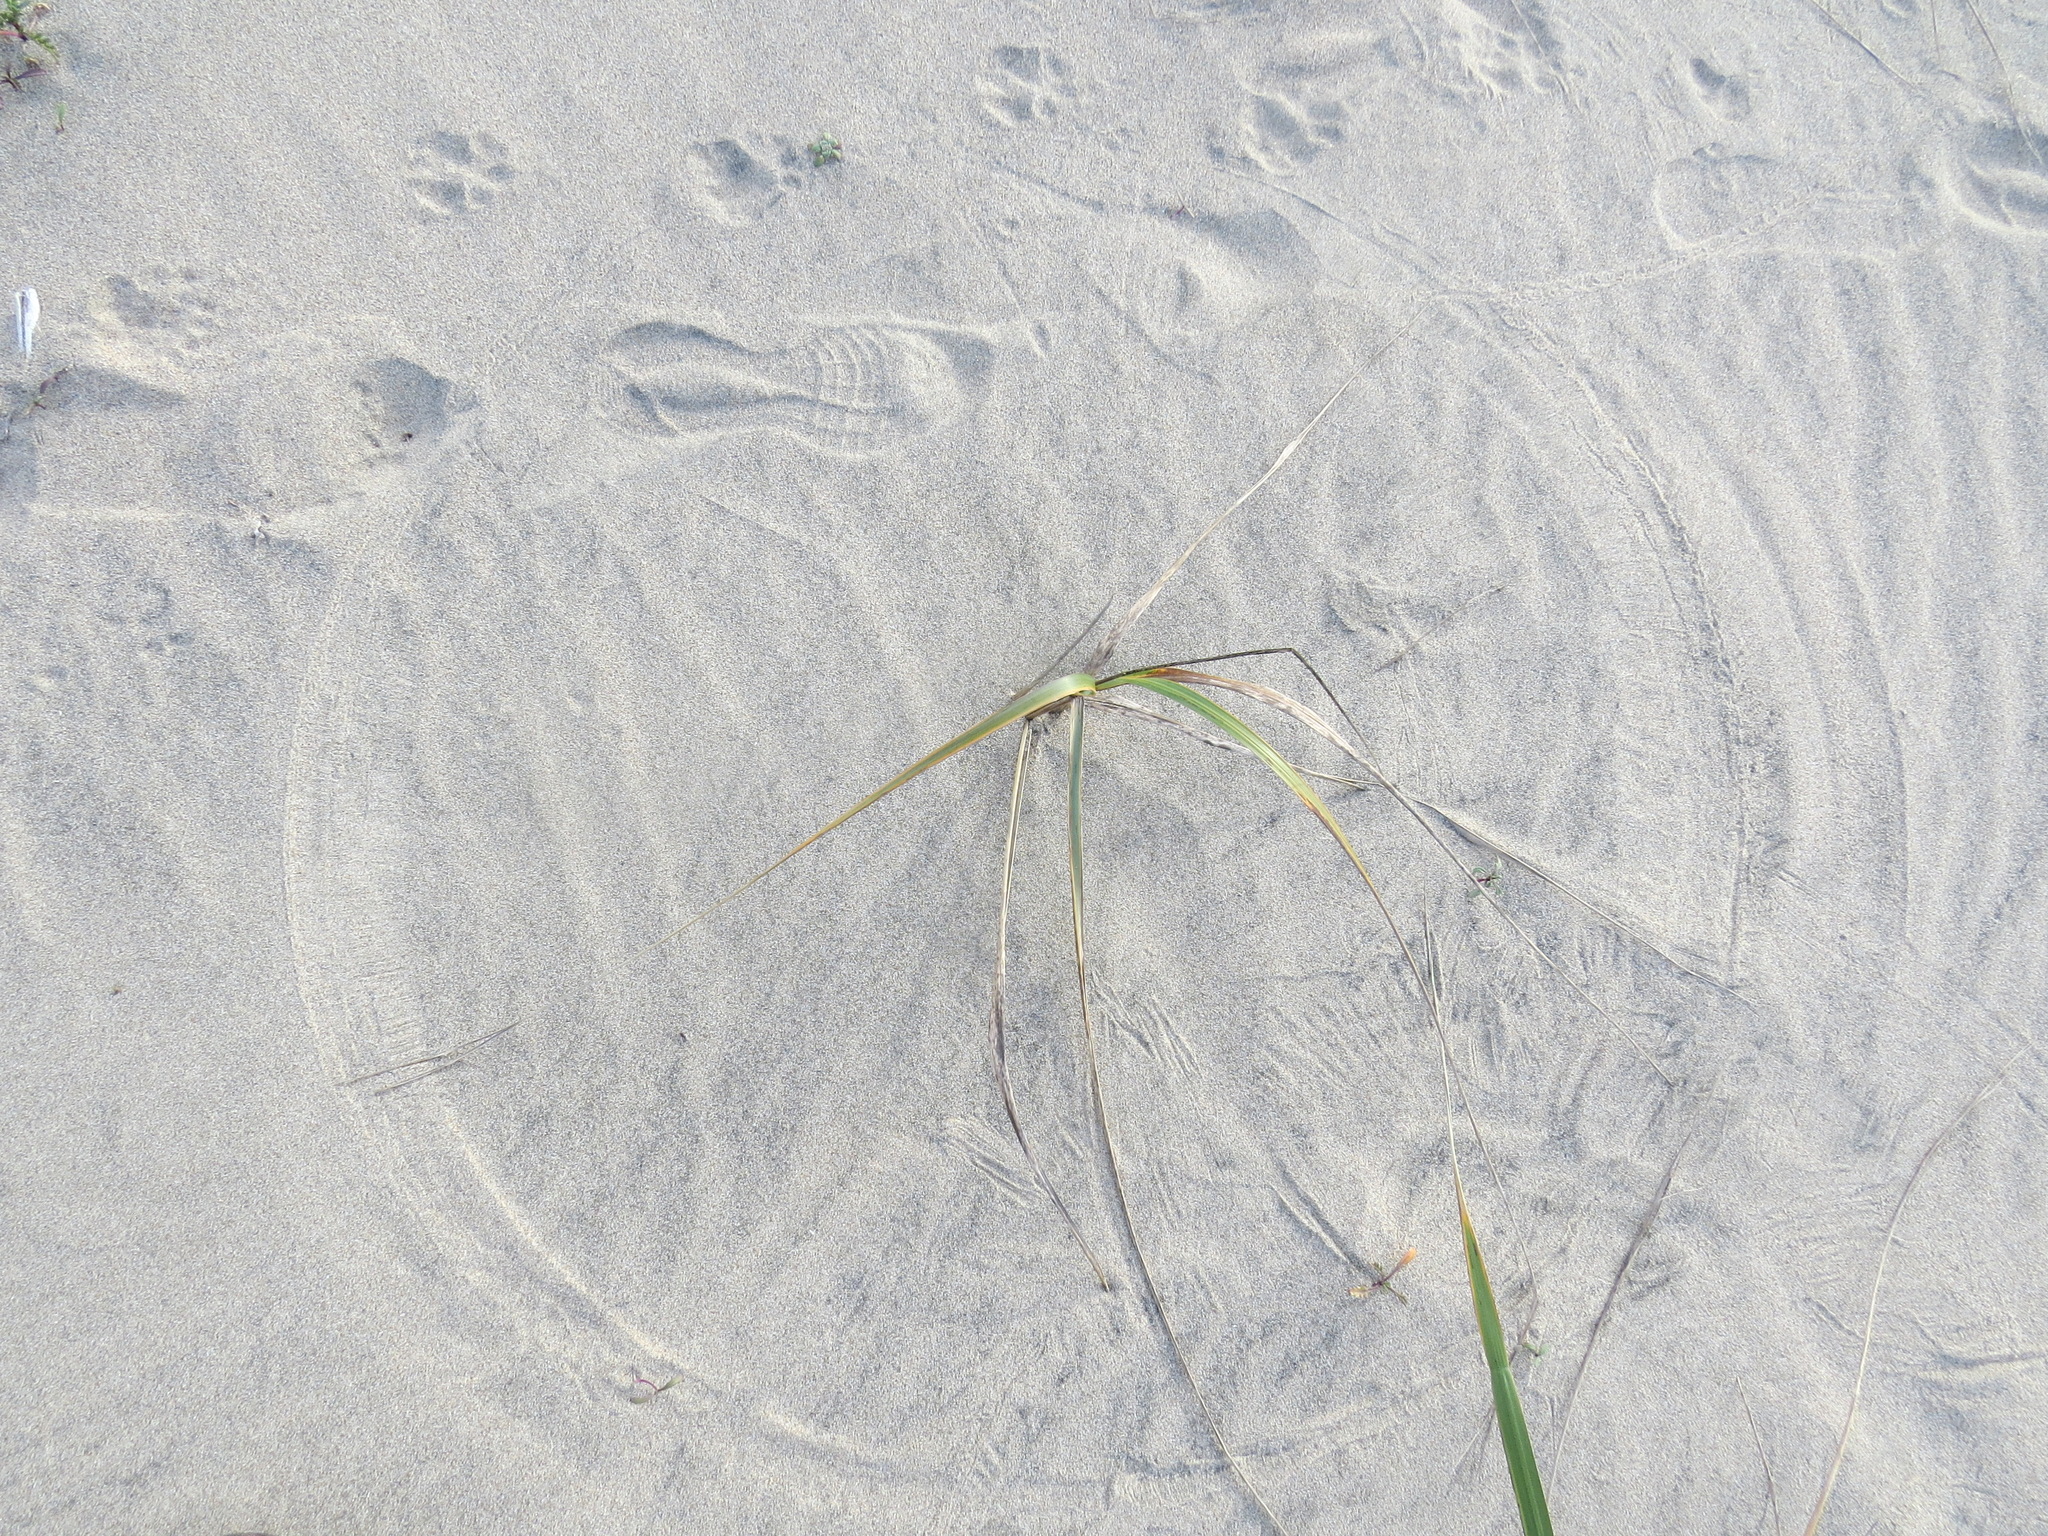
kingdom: Animalia
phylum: Chordata
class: Mammalia
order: Didelphimorphia
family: Didelphidae
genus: Didelphis
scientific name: Didelphis virginiana
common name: Virginia opossum
